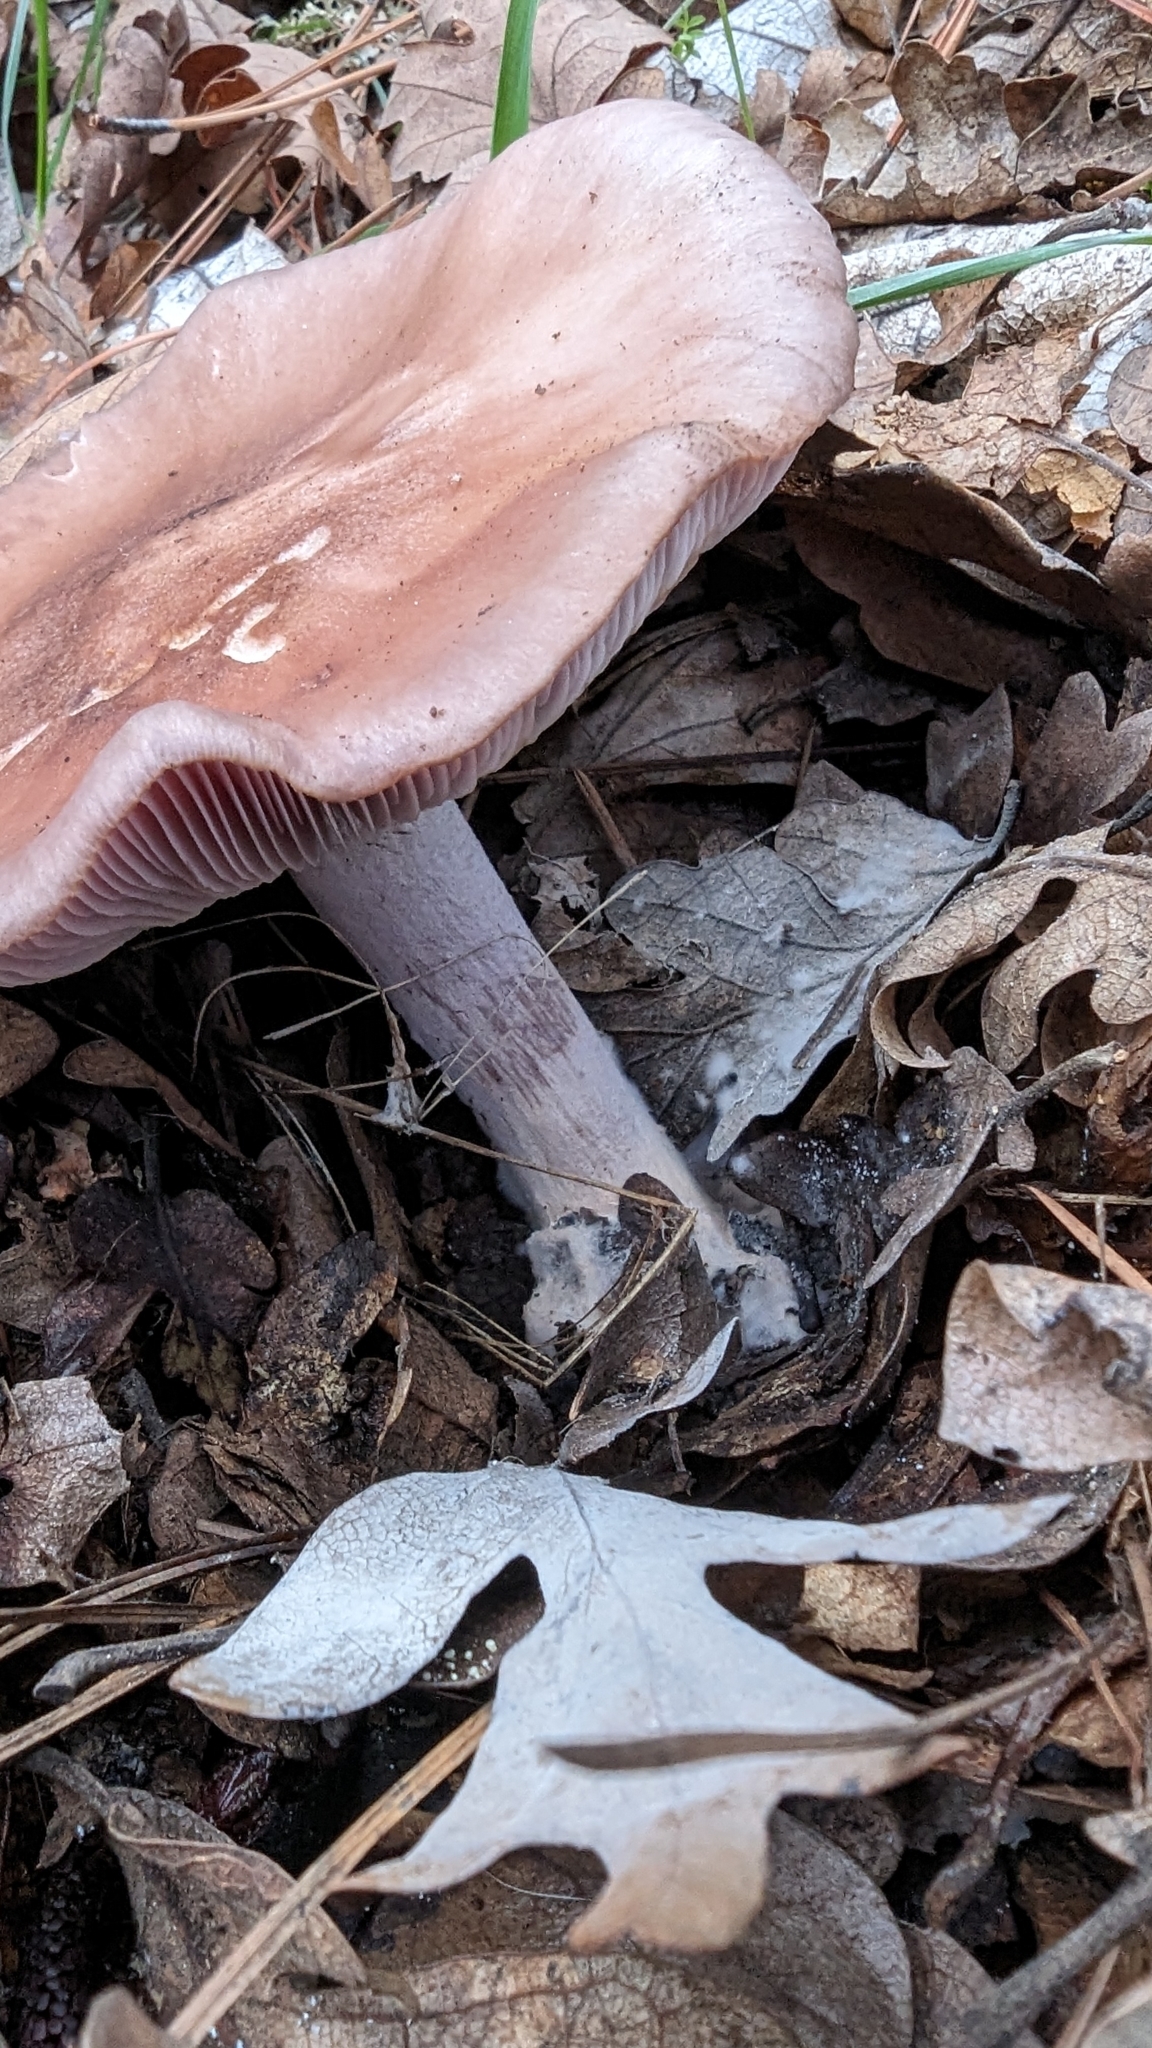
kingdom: Fungi
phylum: Basidiomycota
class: Agaricomycetes
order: Agaricales
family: Tricholomataceae
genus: Collybia
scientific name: Collybia
